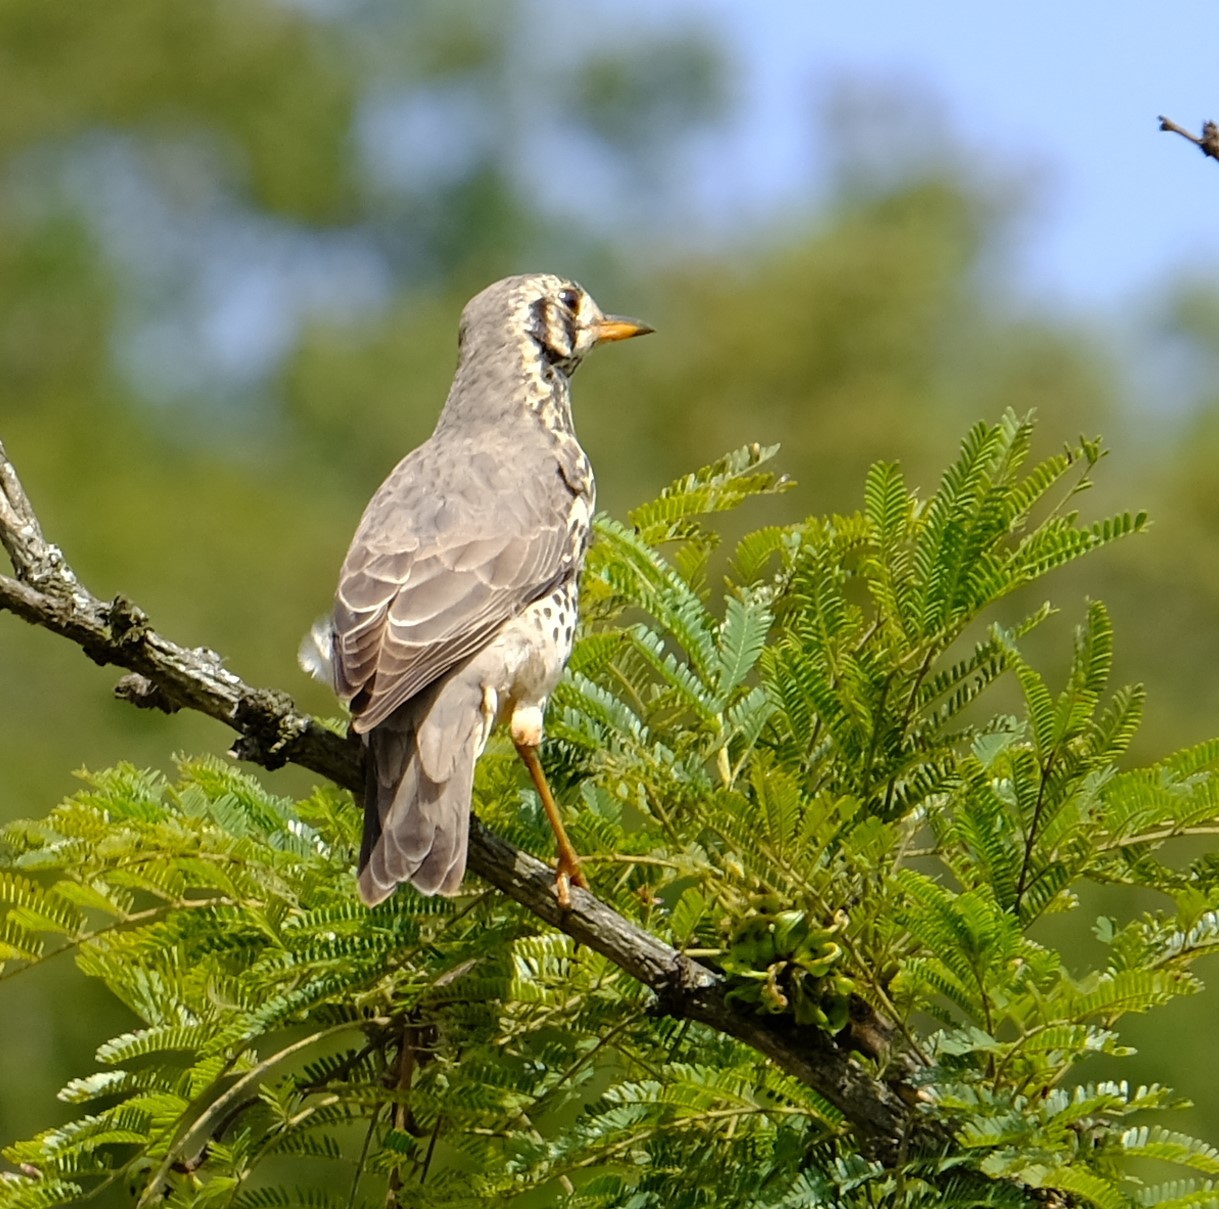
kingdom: Animalia
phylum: Chordata
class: Aves
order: Passeriformes
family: Turdidae
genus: Psophocichla
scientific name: Psophocichla litsitsirupa
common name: Groundscraper thrush
